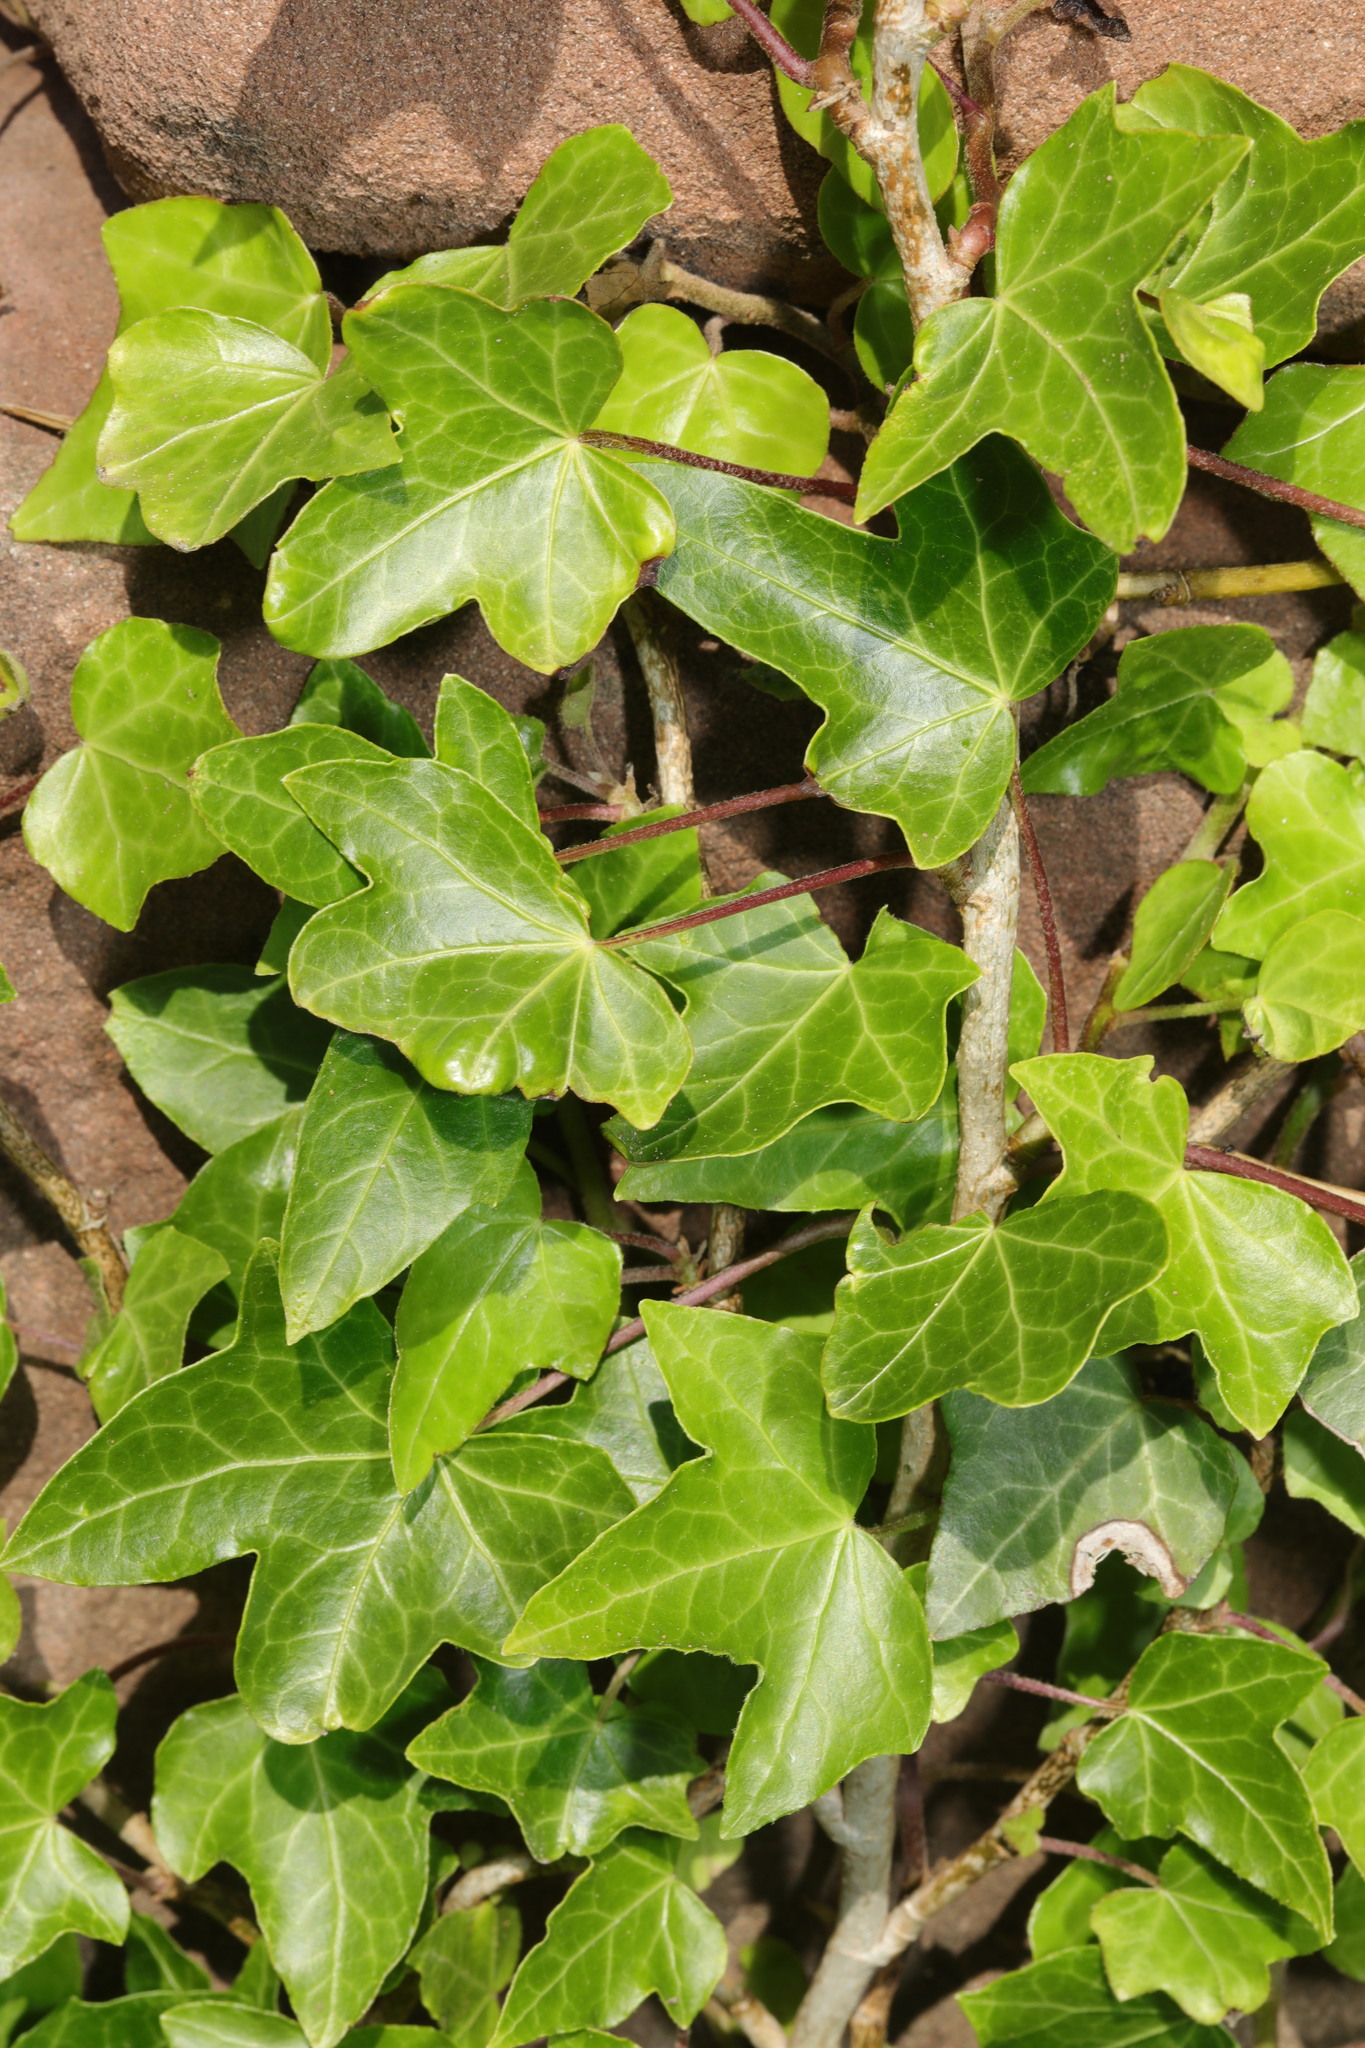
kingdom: Plantae
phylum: Tracheophyta
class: Magnoliopsida
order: Apiales
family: Araliaceae
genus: Hedera
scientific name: Hedera helix
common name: Ivy
